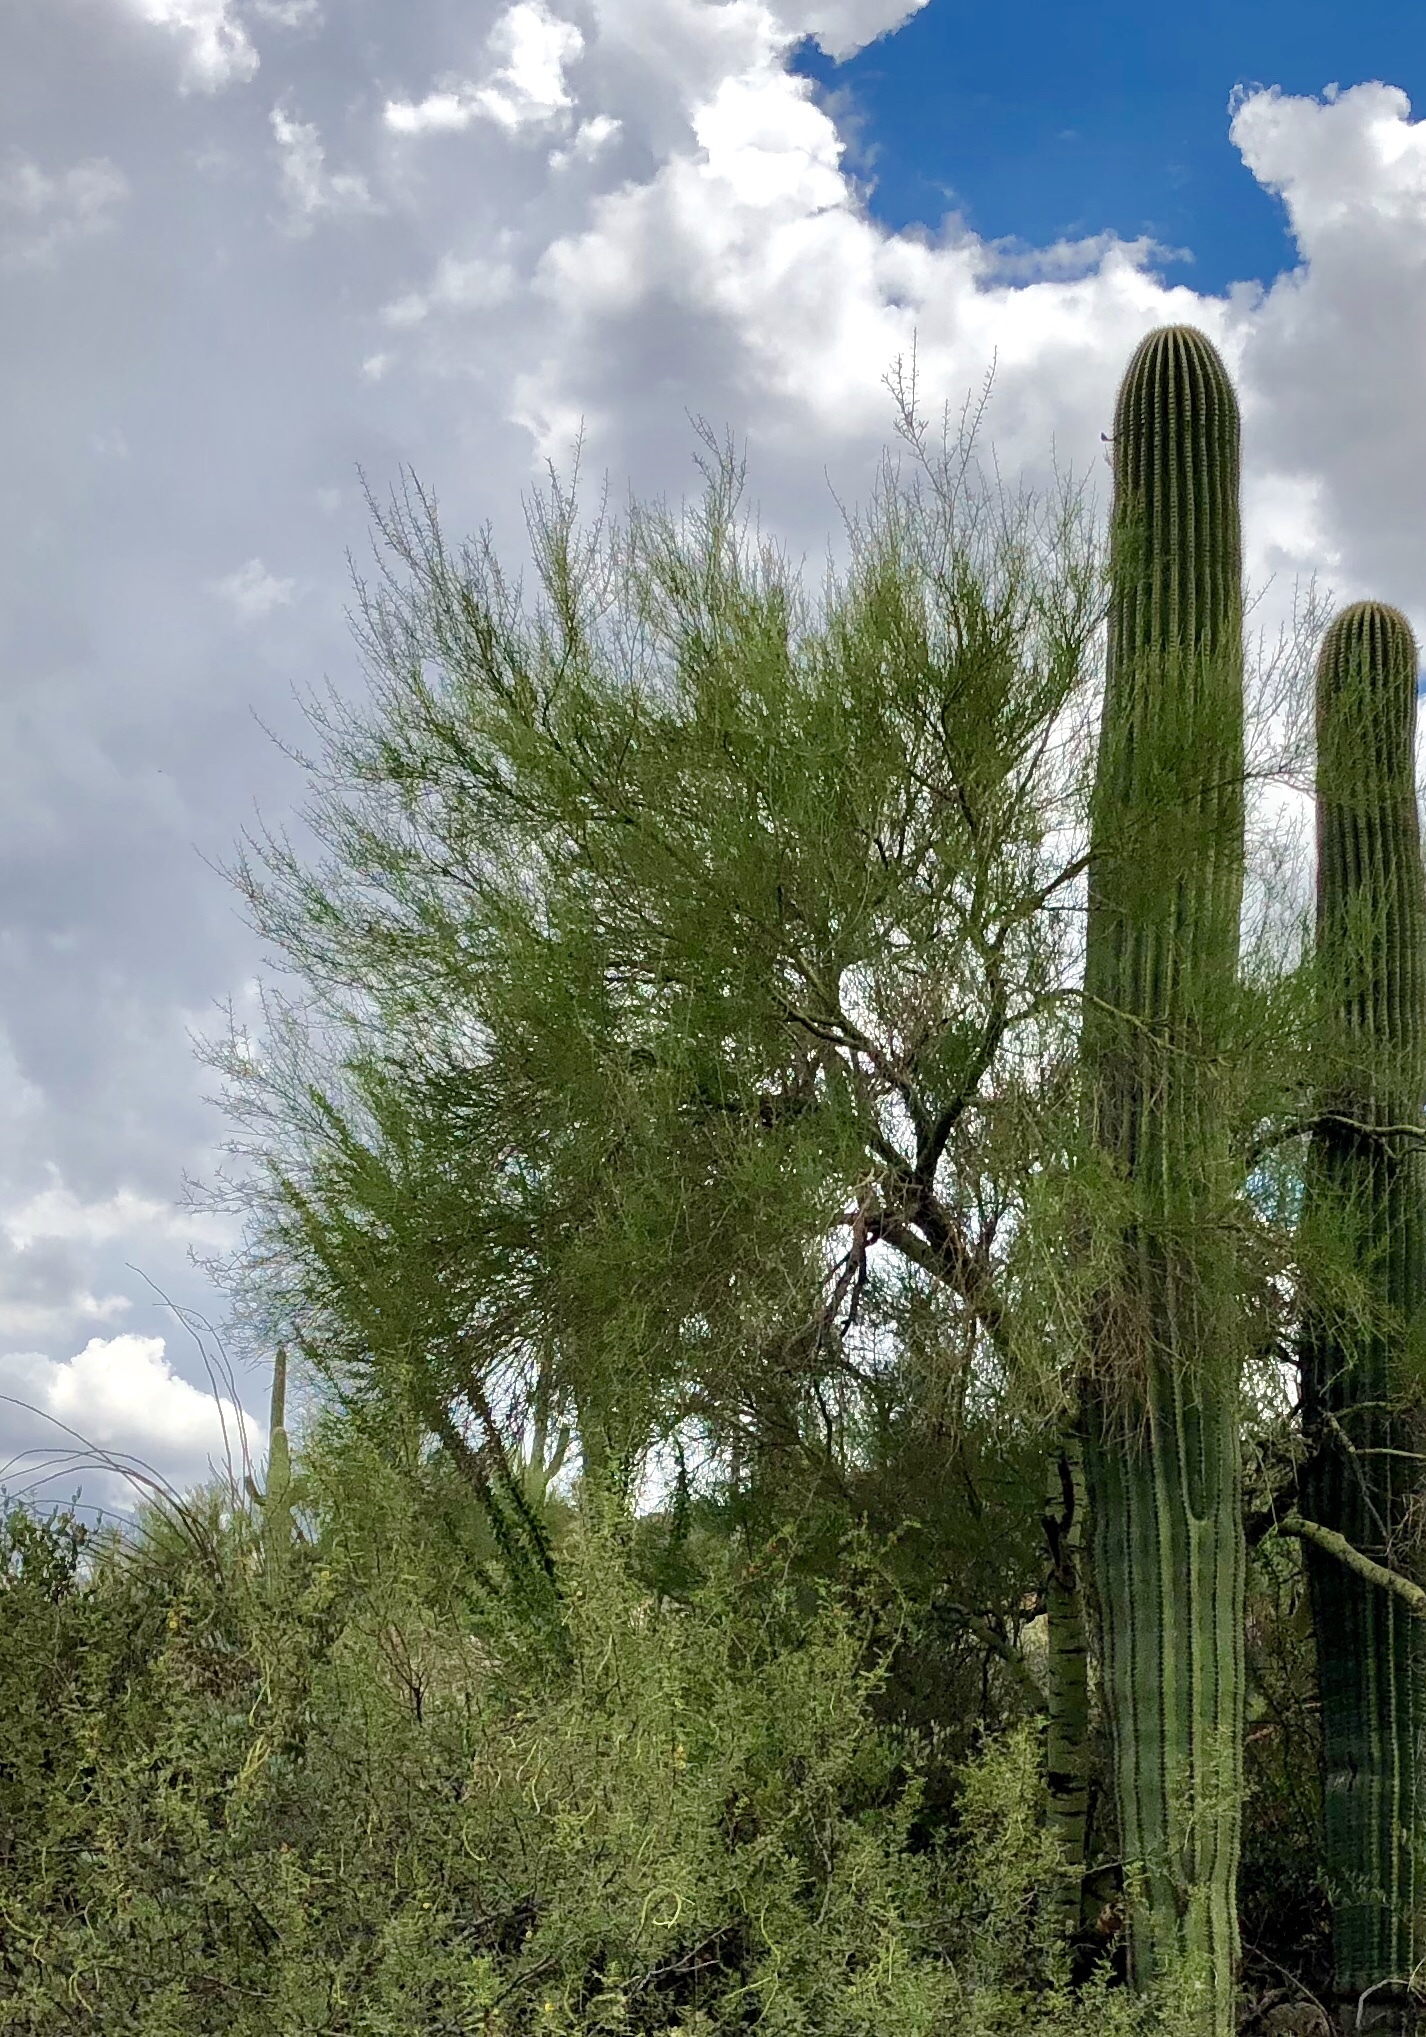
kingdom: Plantae
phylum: Tracheophyta
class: Magnoliopsida
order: Fabales
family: Fabaceae
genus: Parkinsonia
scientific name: Parkinsonia microphylla
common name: Yellow paloverde
